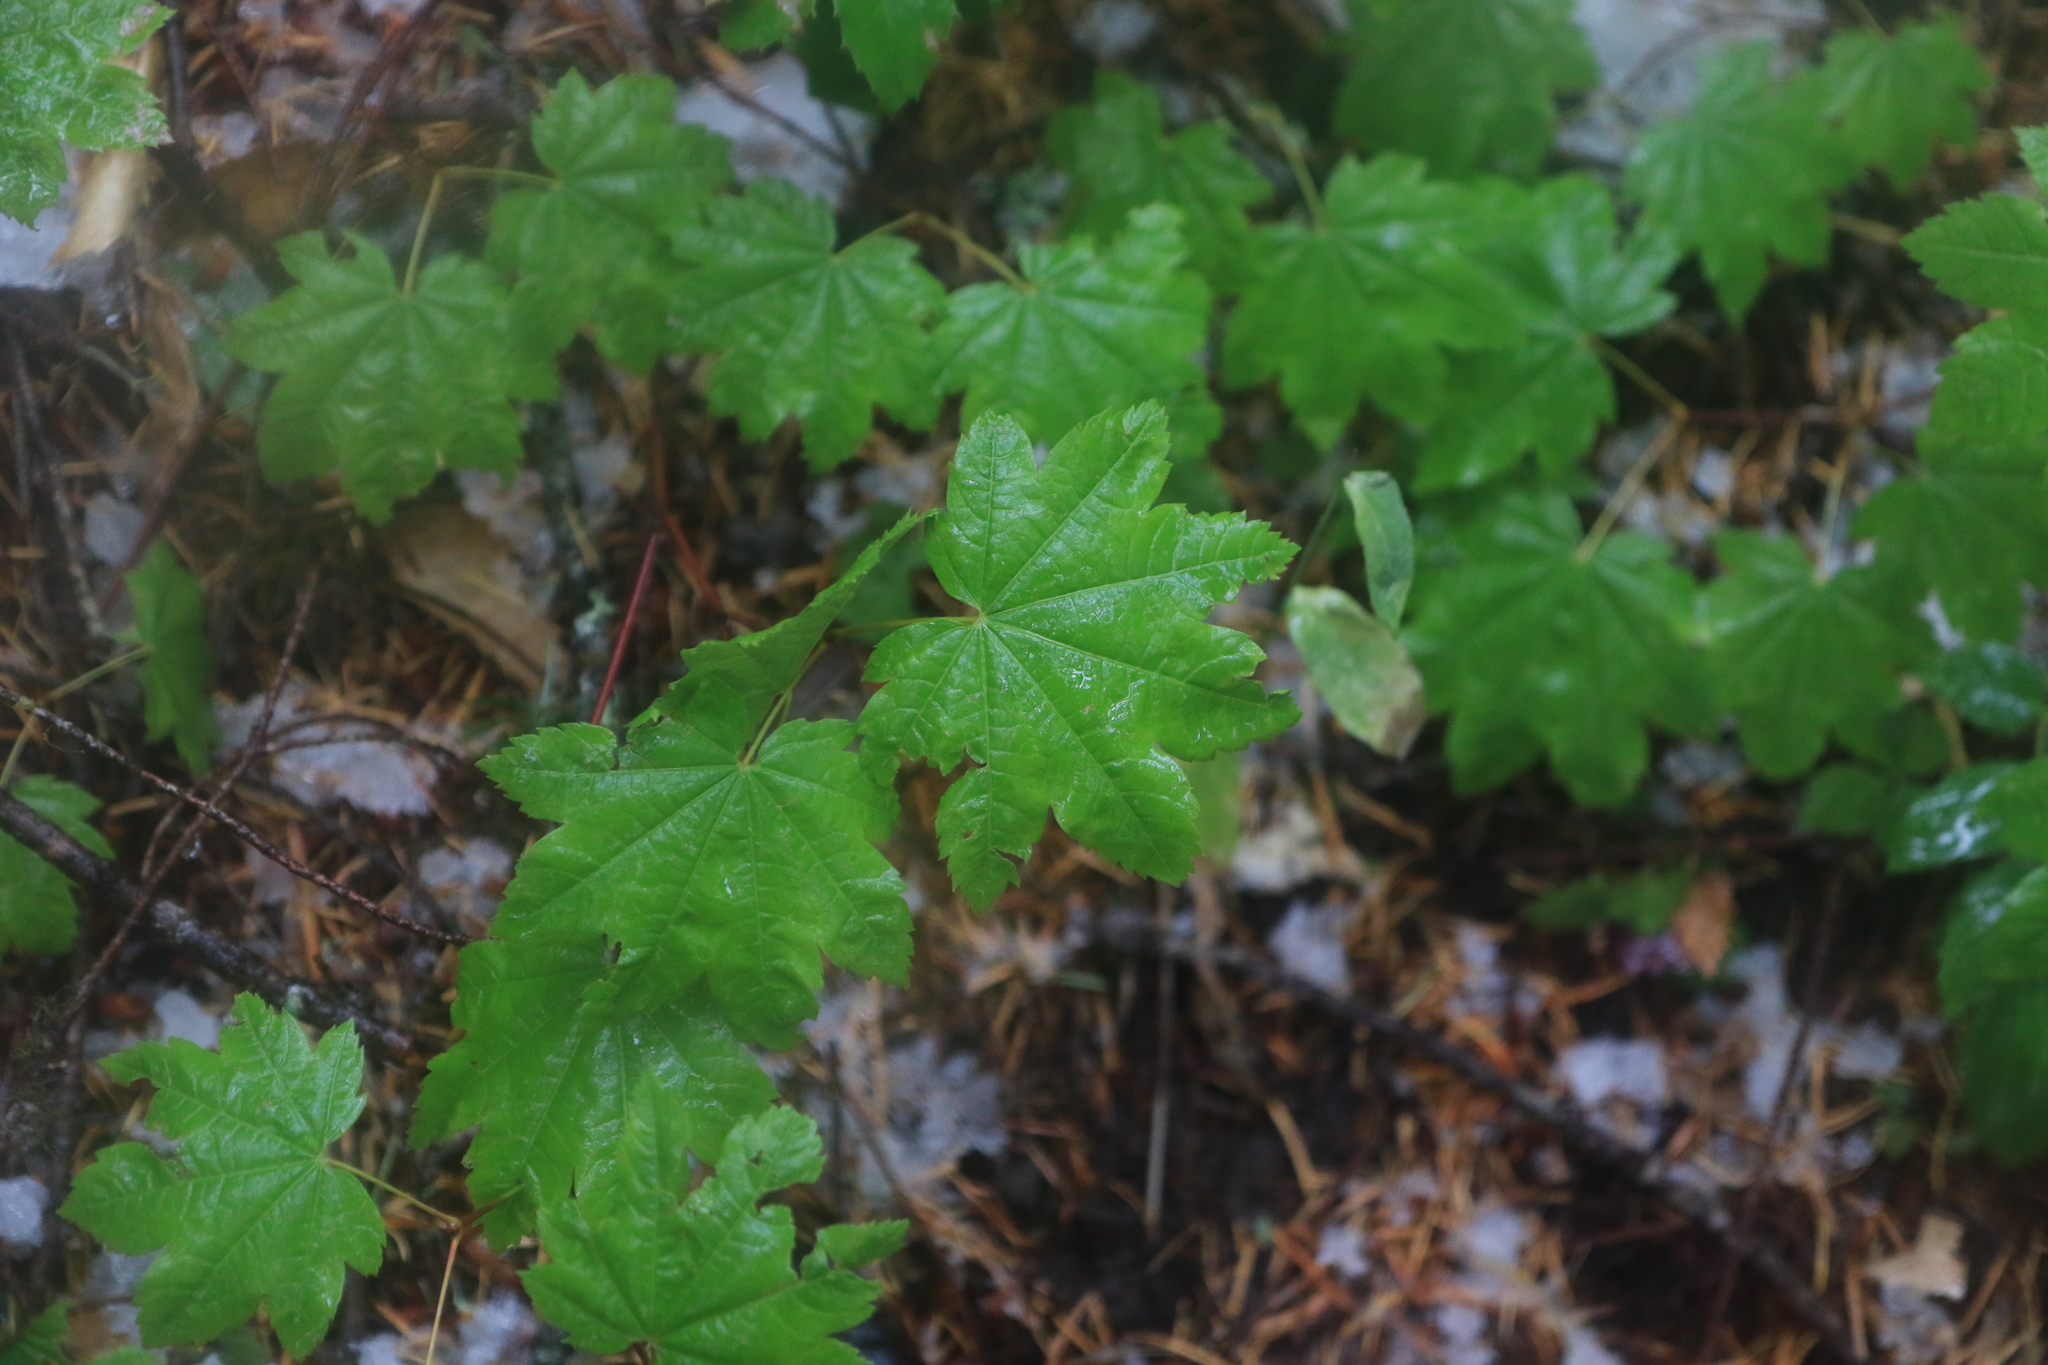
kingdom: Plantae
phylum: Tracheophyta
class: Magnoliopsida
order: Sapindales
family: Sapindaceae
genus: Acer
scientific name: Acer circinatum
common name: Vine maple
